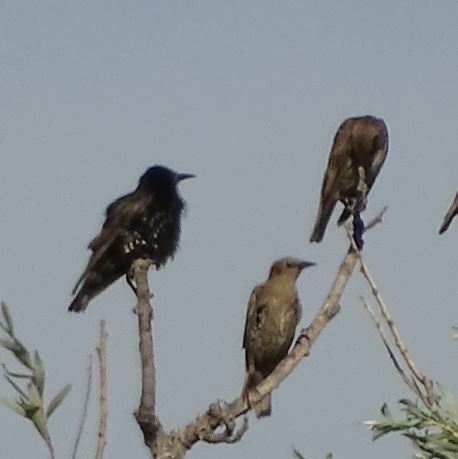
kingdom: Animalia
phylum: Chordata
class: Aves
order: Passeriformes
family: Sturnidae
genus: Sturnus
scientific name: Sturnus vulgaris
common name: Common starling
